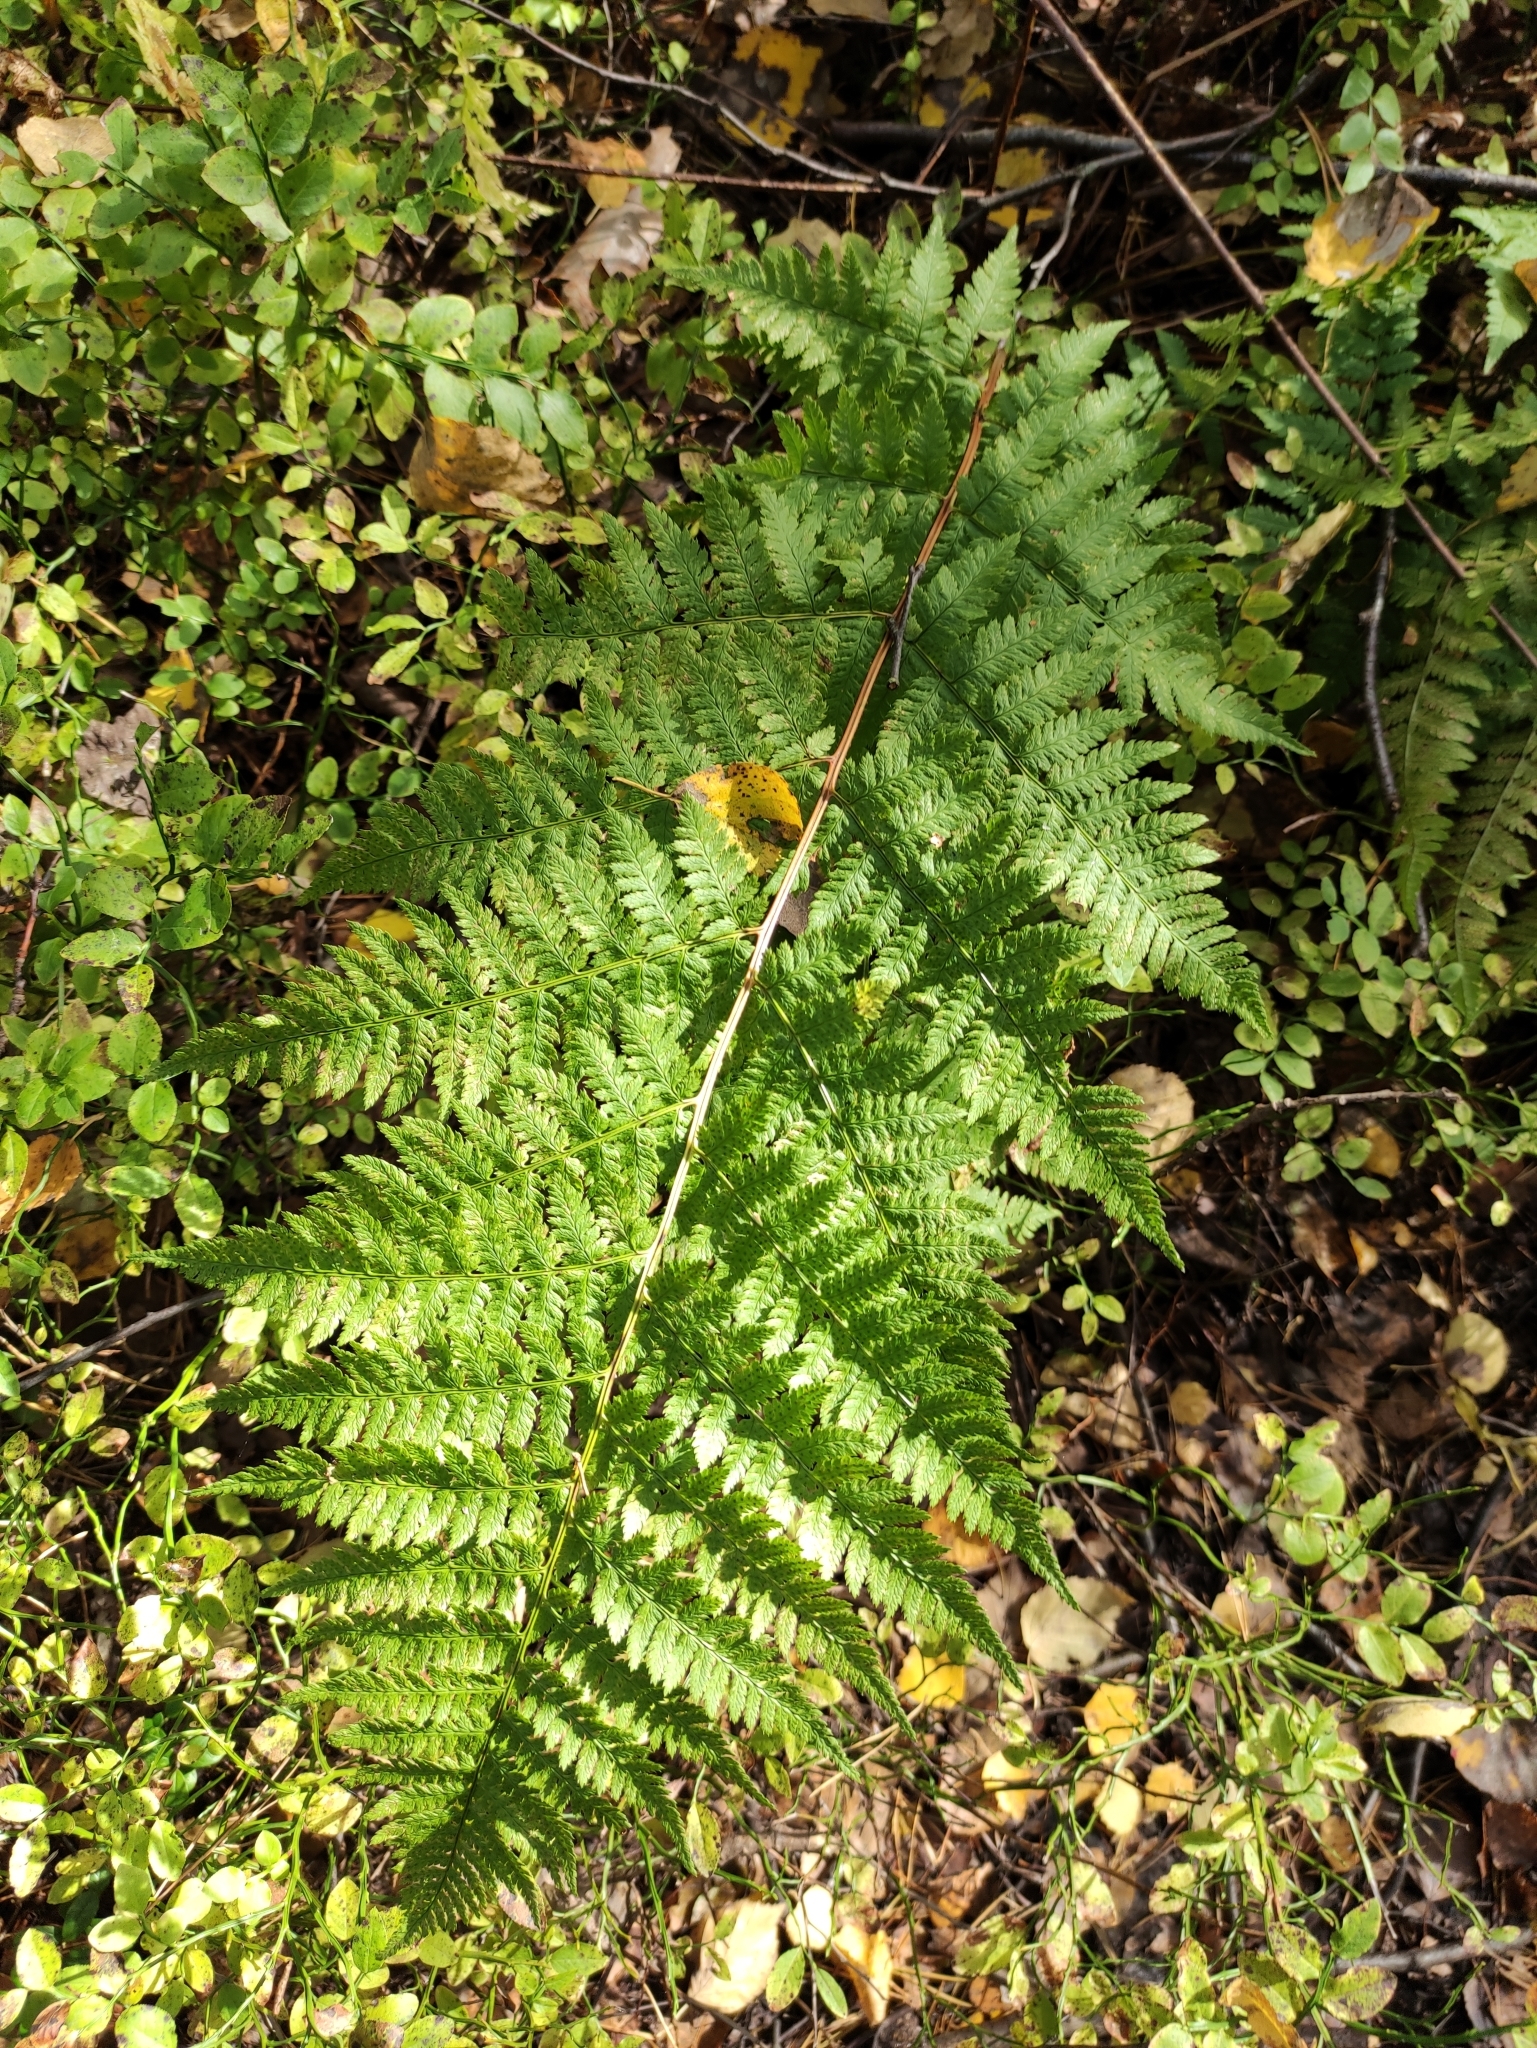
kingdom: Plantae
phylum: Tracheophyta
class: Polypodiopsida
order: Polypodiales
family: Dryopteridaceae
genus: Dryopteris
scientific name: Dryopteris carthusiana
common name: Narrow buckler-fern
